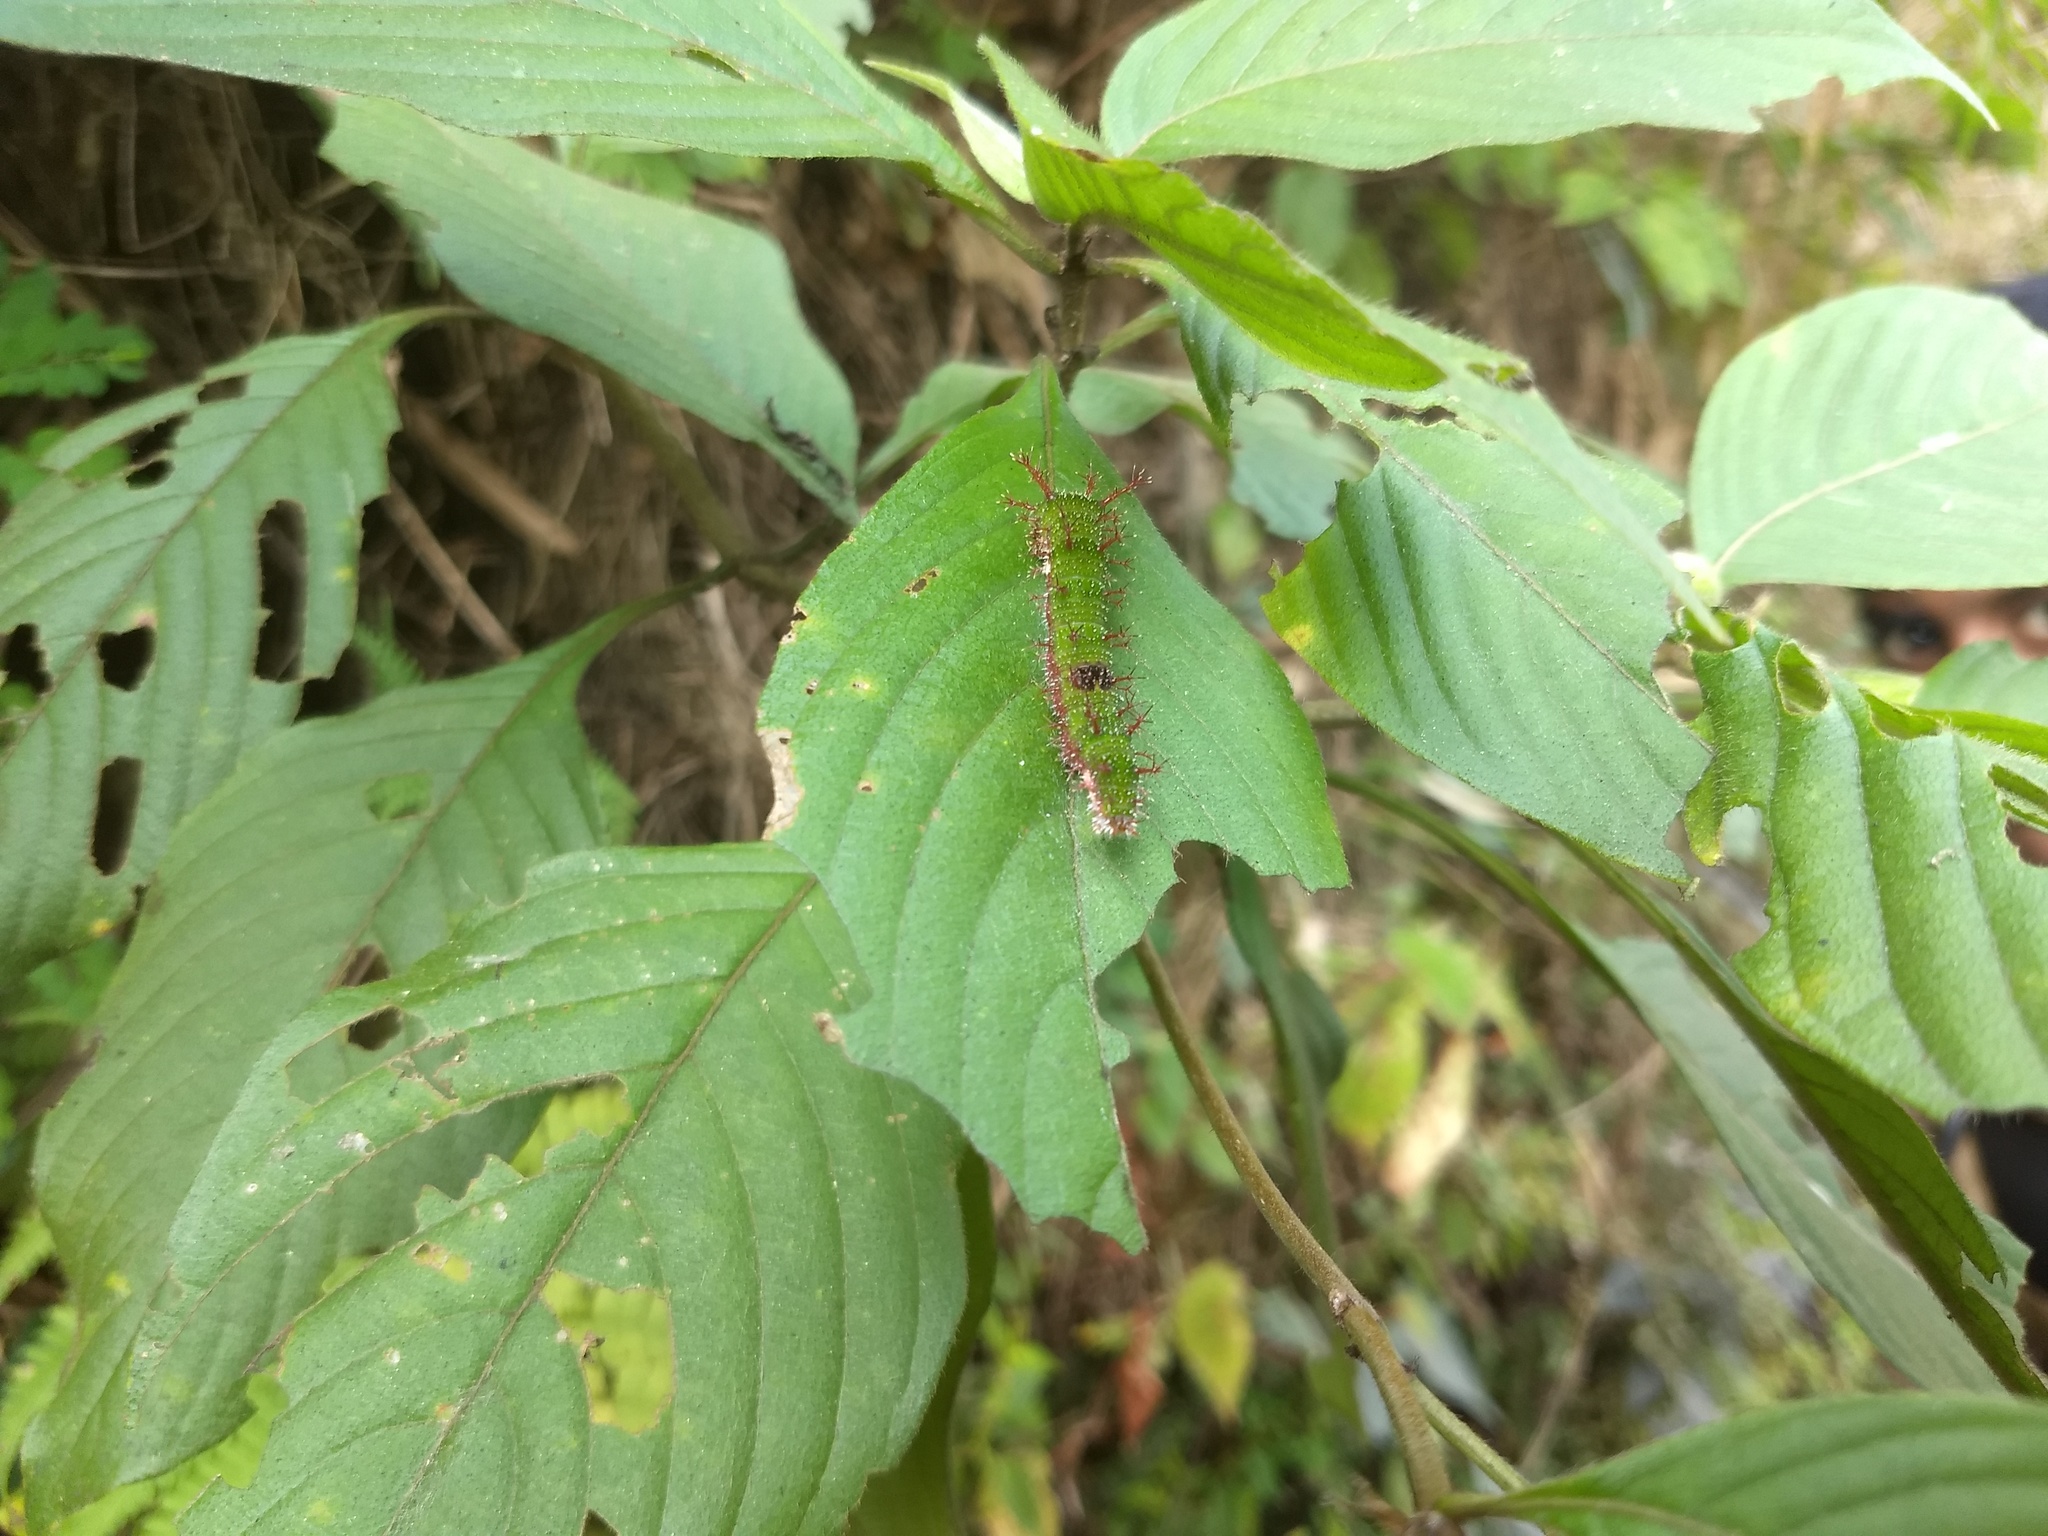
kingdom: Animalia
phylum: Arthropoda
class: Insecta
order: Lepidoptera
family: Nymphalidae
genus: Parathyma
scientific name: Parathyma nefte
